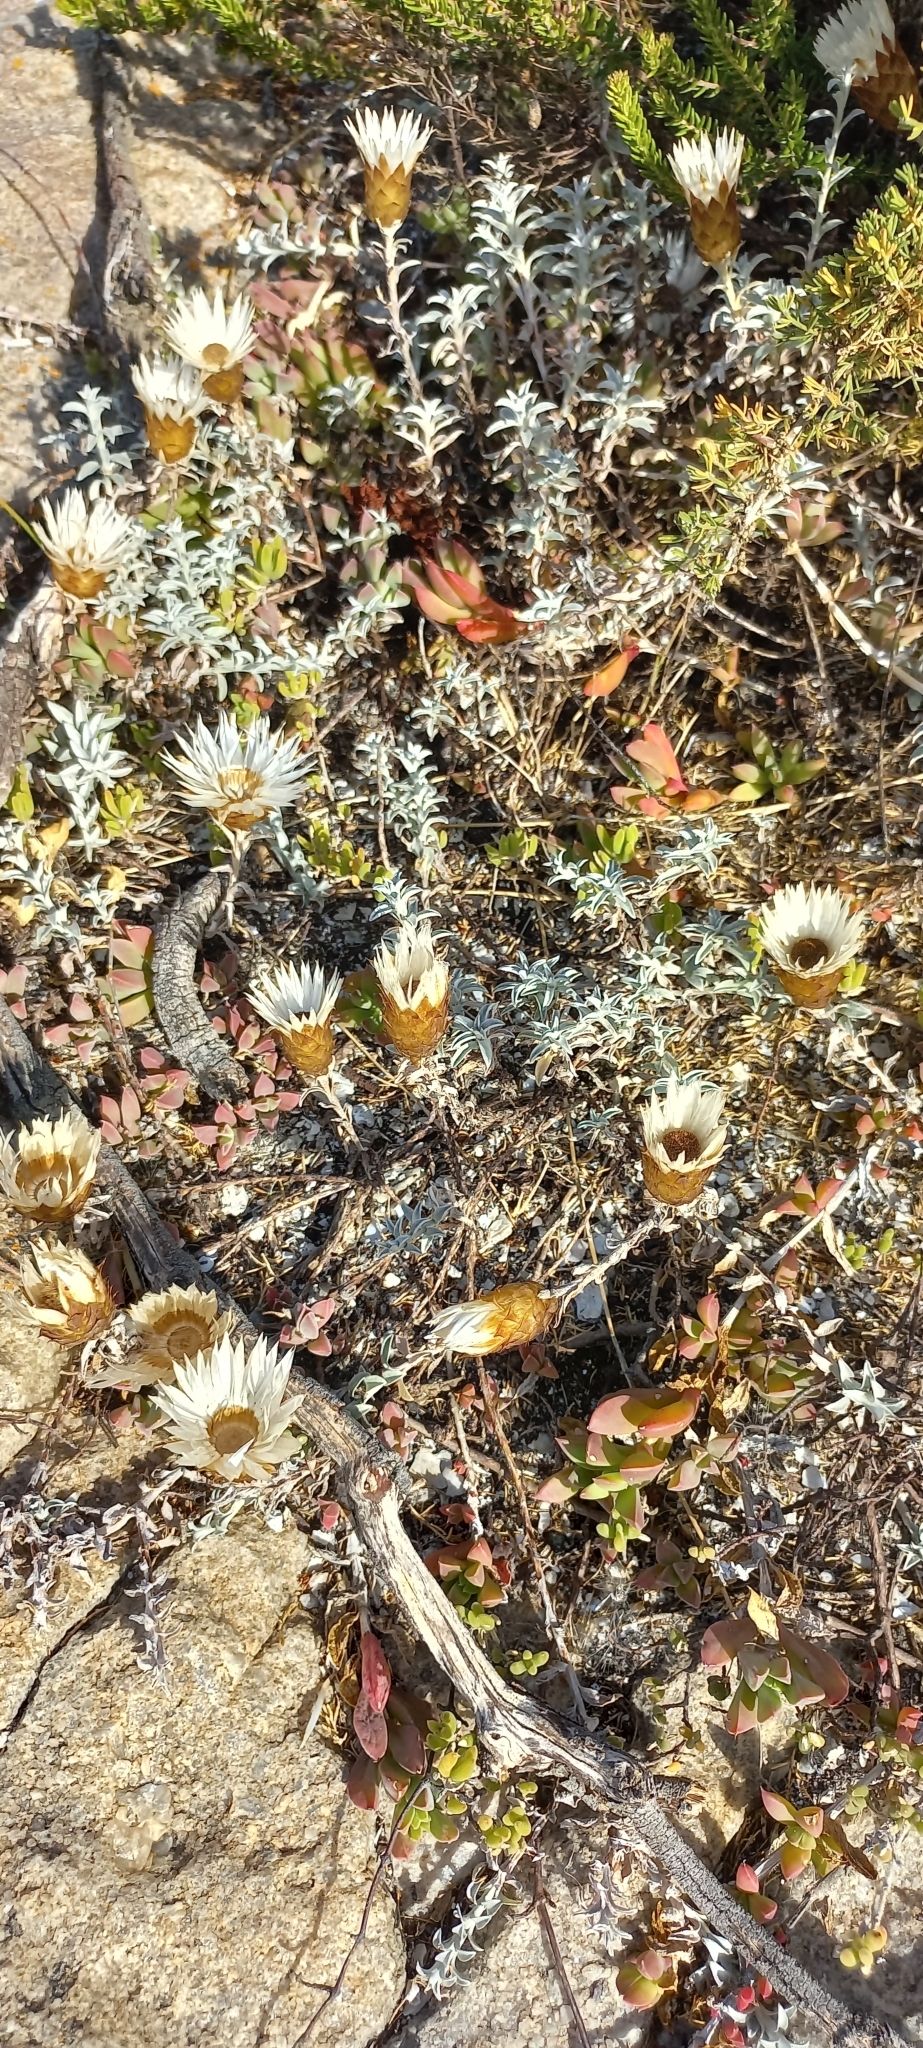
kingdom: Plantae
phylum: Tracheophyta
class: Magnoliopsida
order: Asterales
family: Asteraceae
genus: Helichrysum
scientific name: Helichrysum retortum
